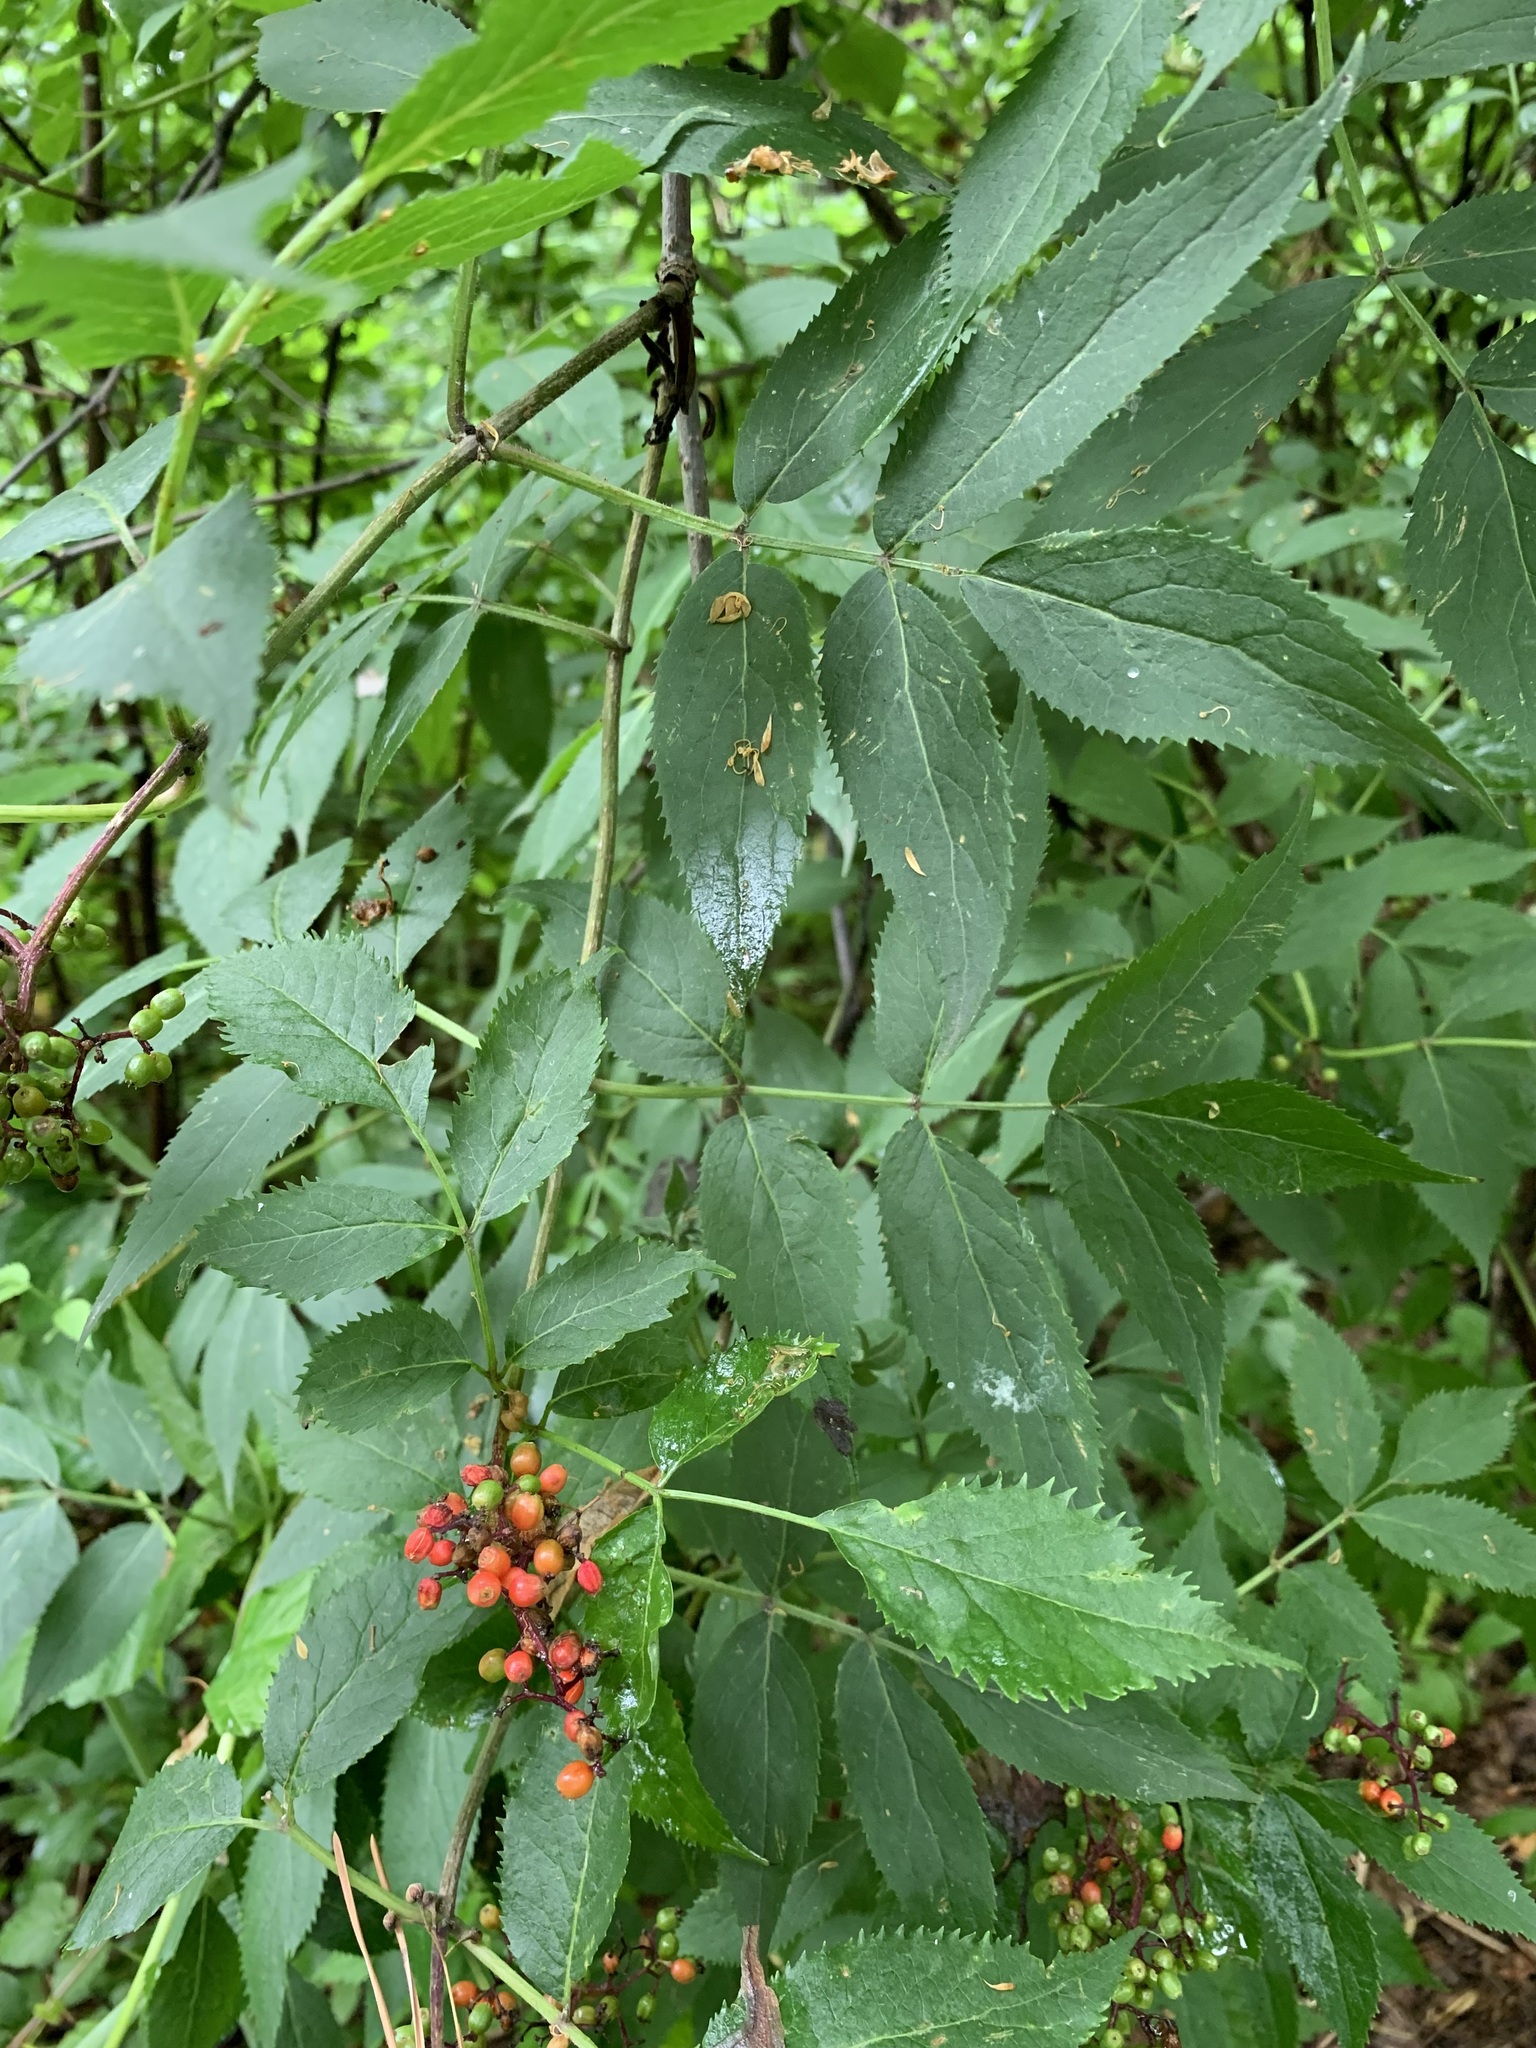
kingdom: Plantae
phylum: Tracheophyta
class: Magnoliopsida
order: Dipsacales
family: Viburnaceae
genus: Sambucus
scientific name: Sambucus sibirica
